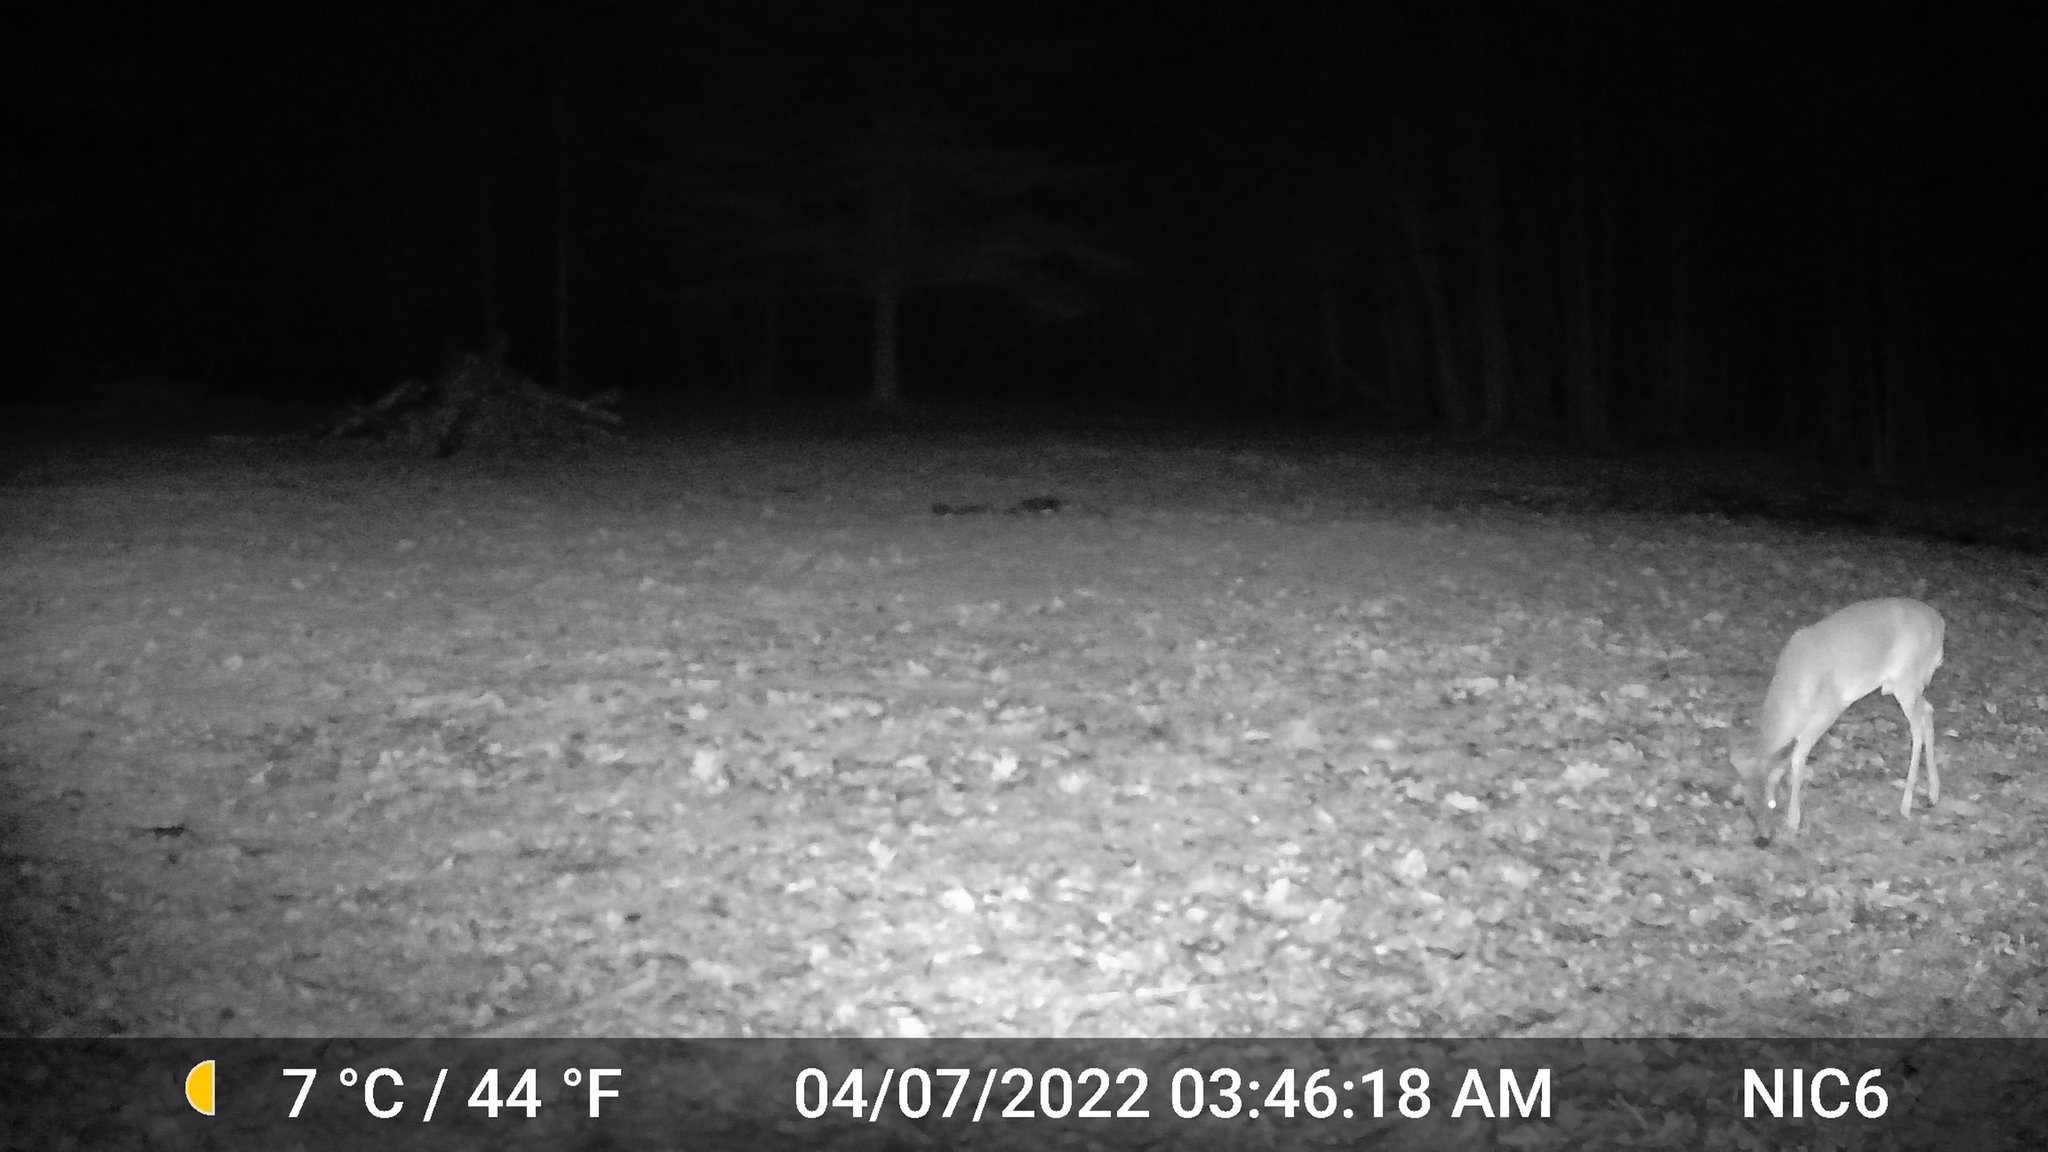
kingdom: Animalia
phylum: Chordata
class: Mammalia
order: Artiodactyla
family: Cervidae
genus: Odocoileus
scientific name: Odocoileus virginianus
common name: White-tailed deer
